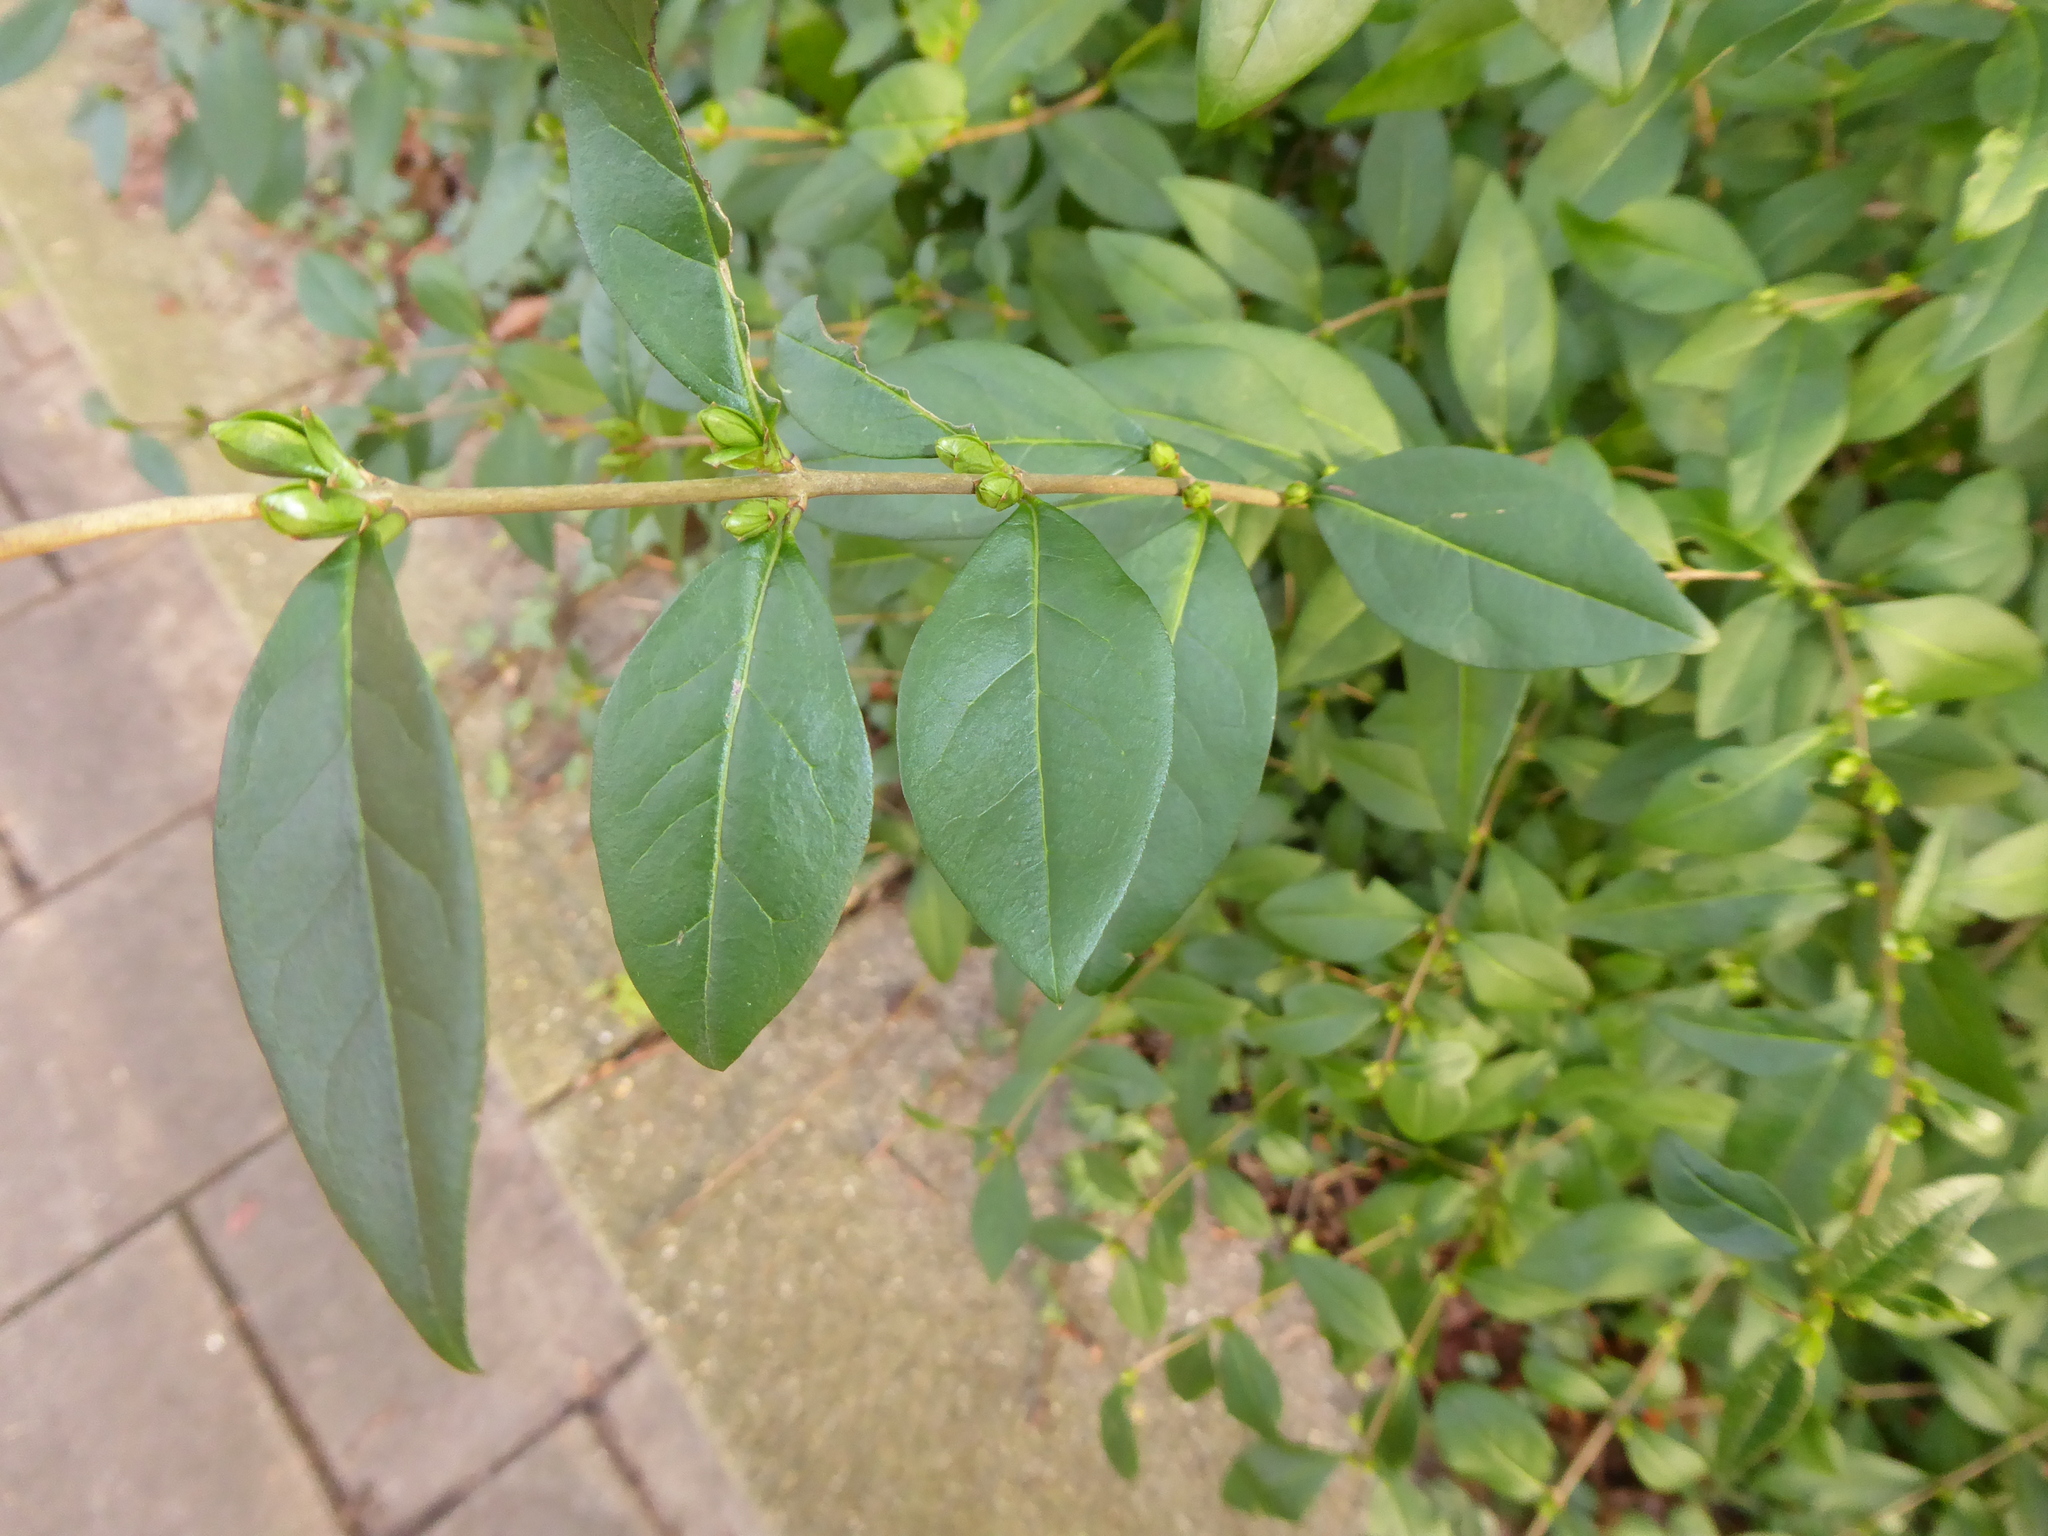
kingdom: Plantae
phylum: Tracheophyta
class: Magnoliopsida
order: Lamiales
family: Oleaceae
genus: Ligustrum
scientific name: Ligustrum ovalifolium
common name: California privet
